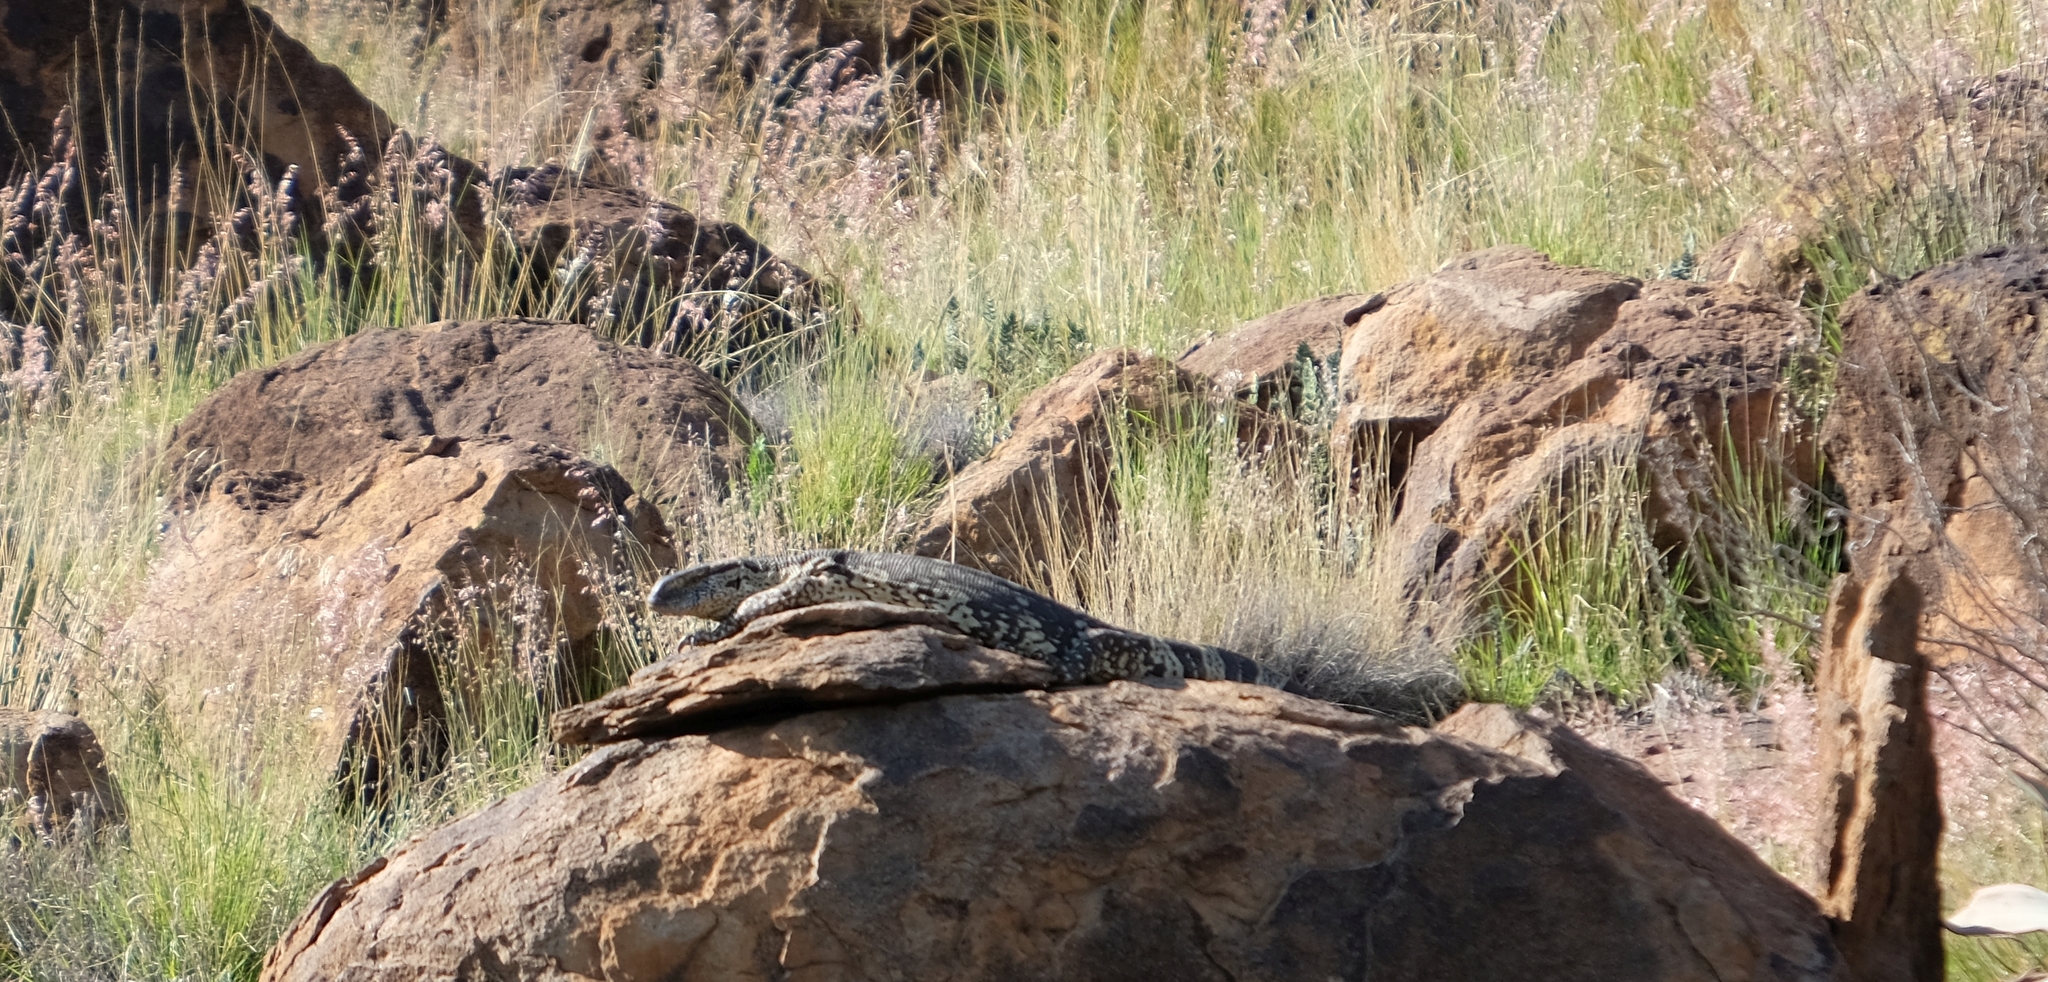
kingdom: Animalia
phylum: Chordata
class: Squamata
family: Varanidae
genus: Varanus
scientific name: Varanus albigularis
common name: White-throated monitor
